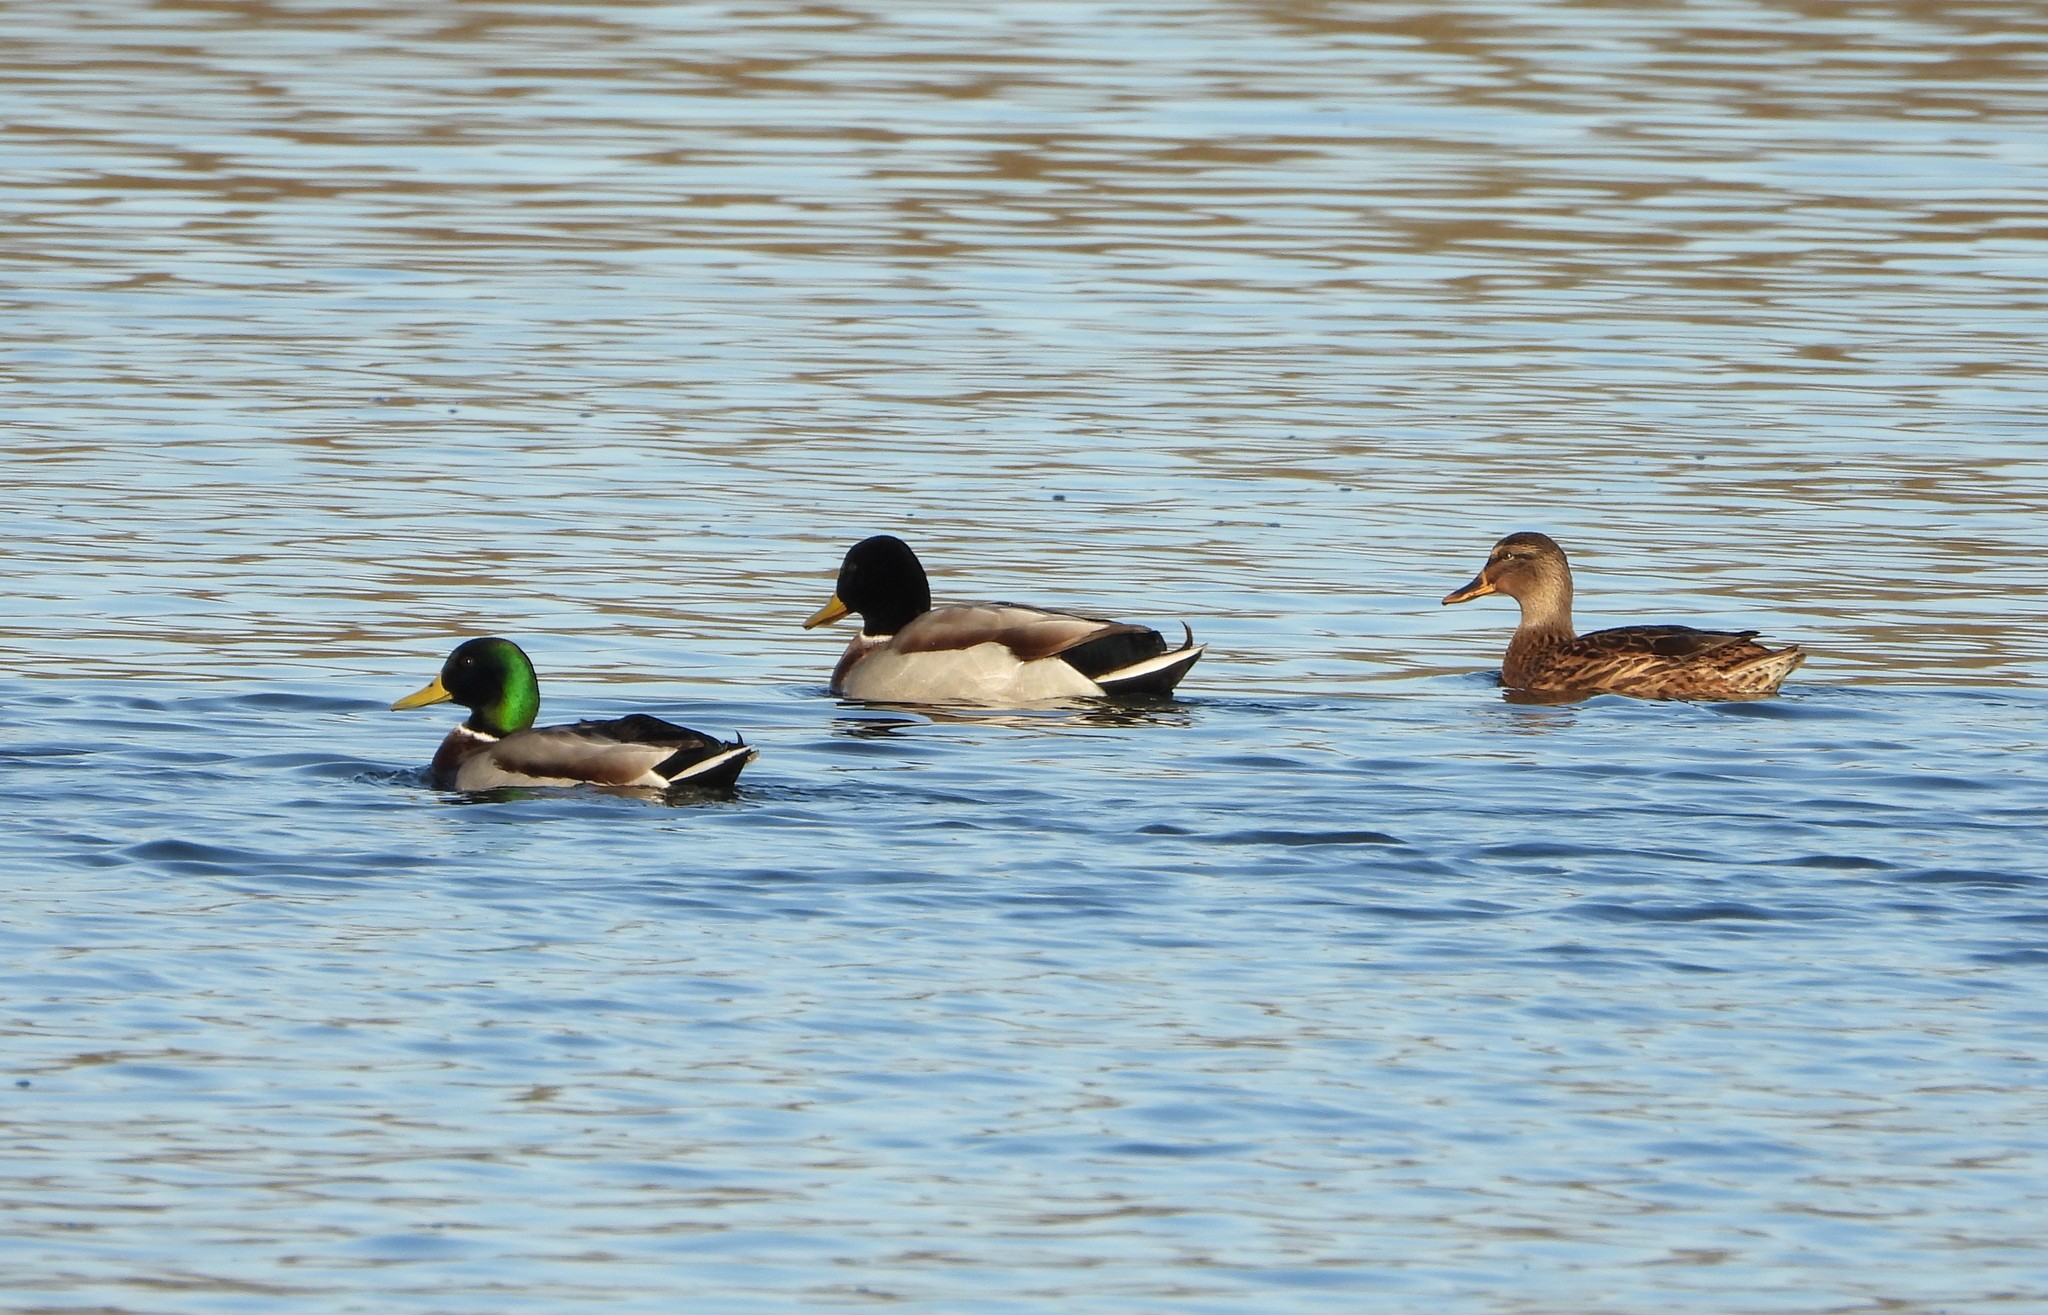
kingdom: Animalia
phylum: Chordata
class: Aves
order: Anseriformes
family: Anatidae
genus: Anas
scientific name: Anas platyrhynchos
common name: Mallard
